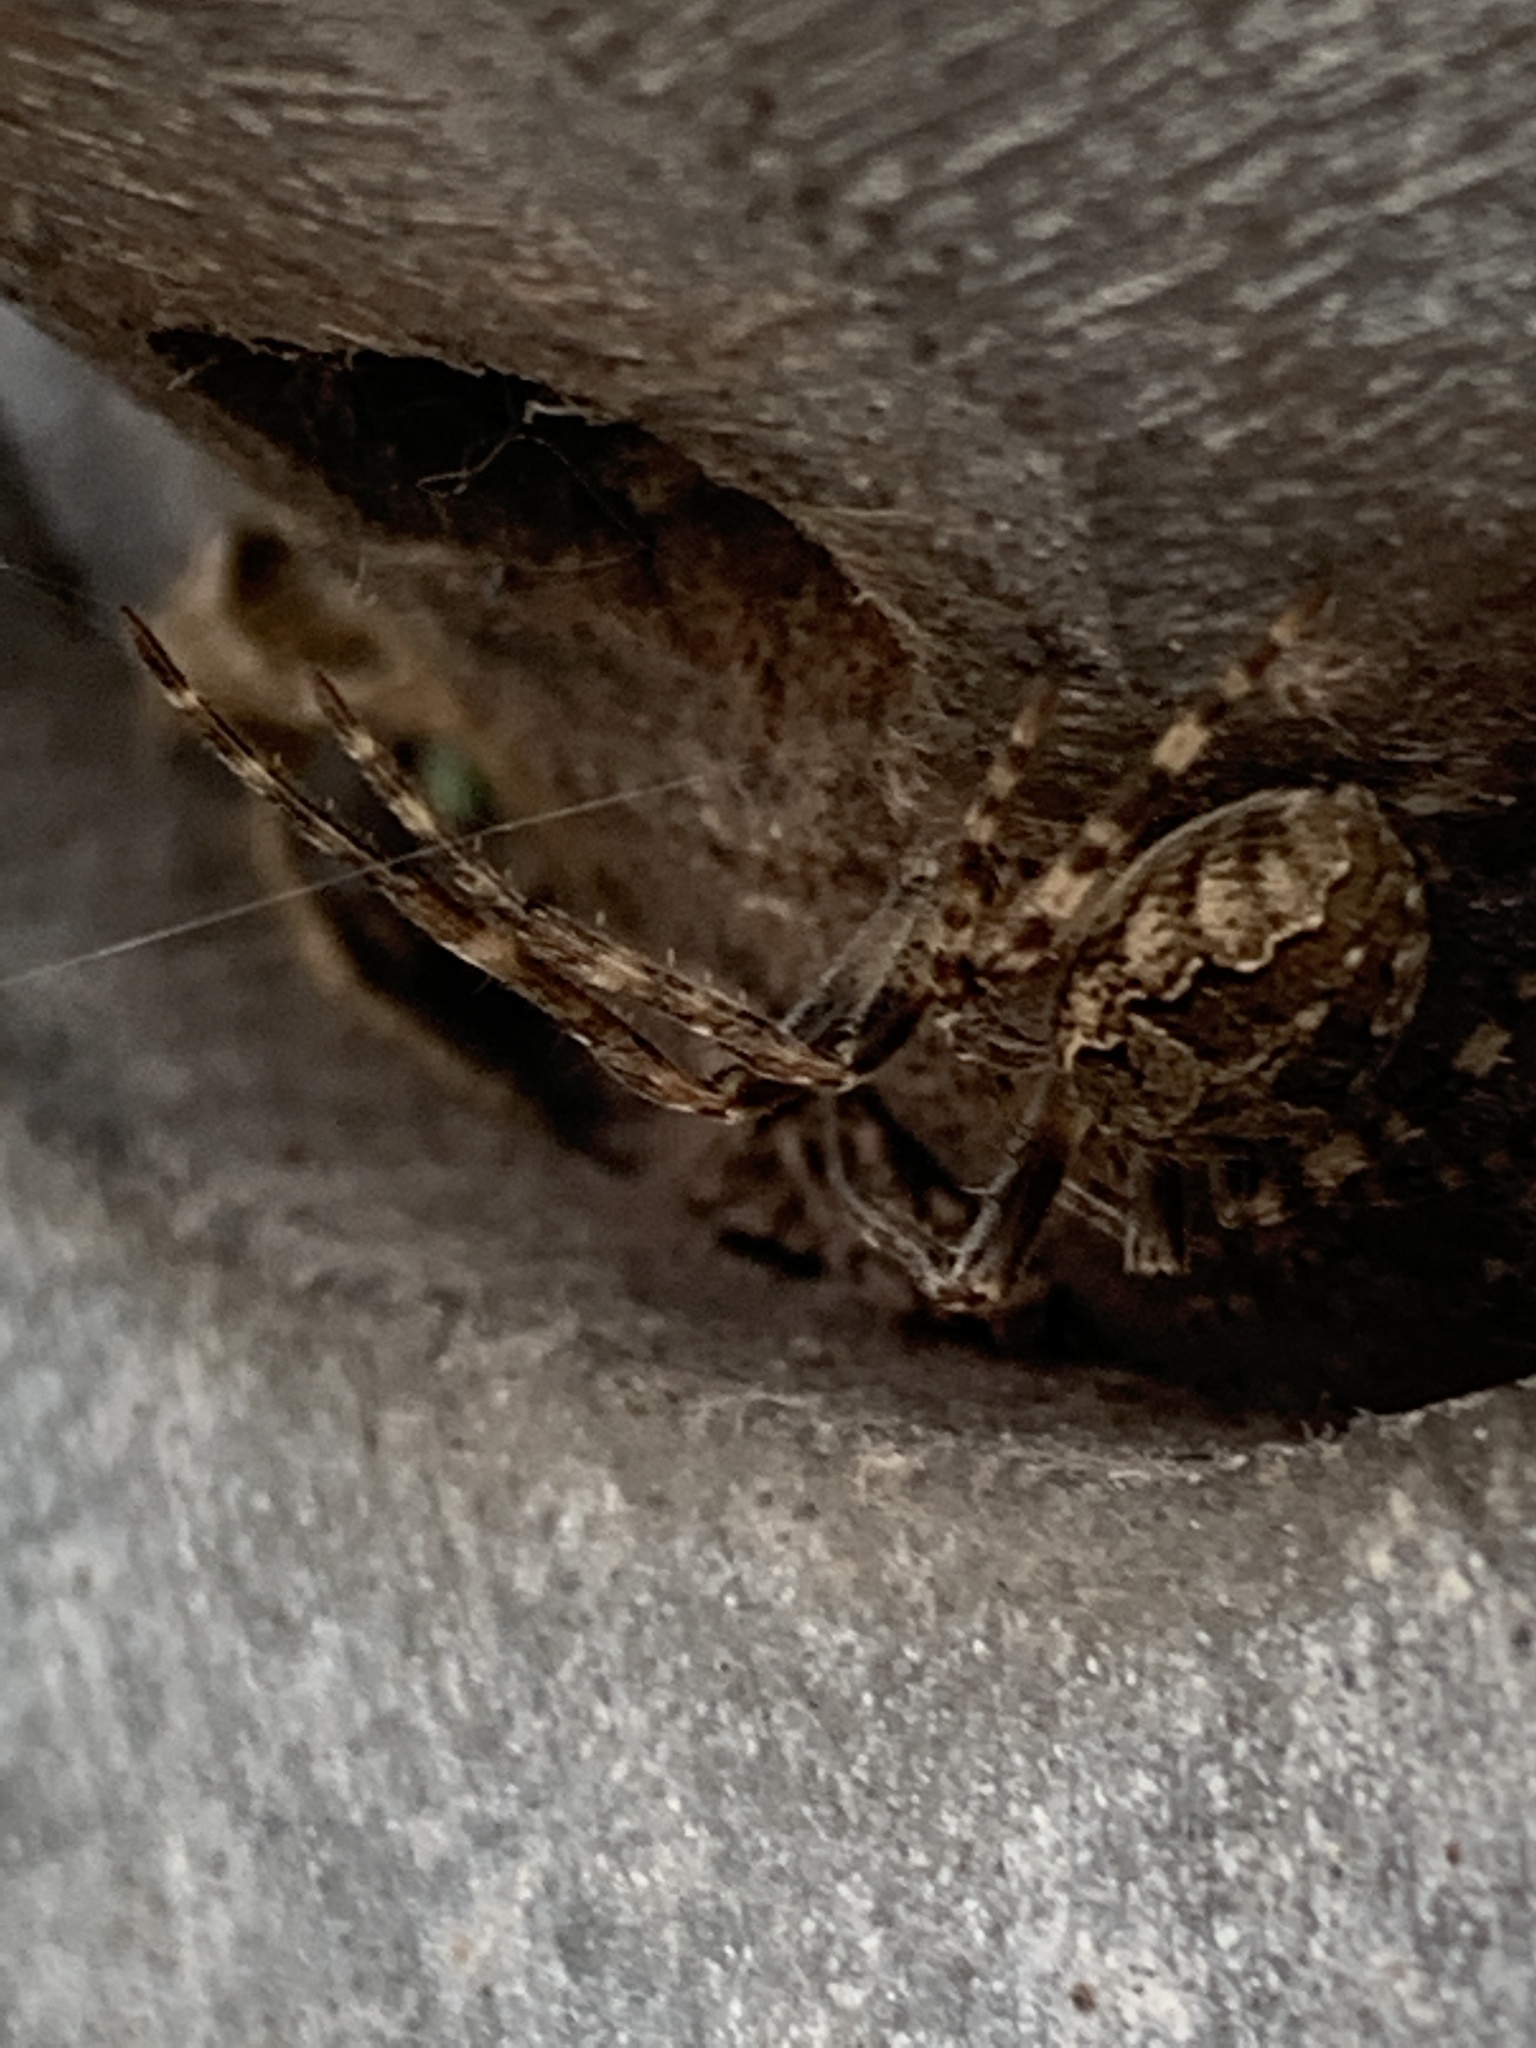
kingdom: Animalia
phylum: Arthropoda
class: Arachnida
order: Araneae
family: Araneidae
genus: Larinioides
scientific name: Larinioides sclopetarius
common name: Bridge orbweaver
